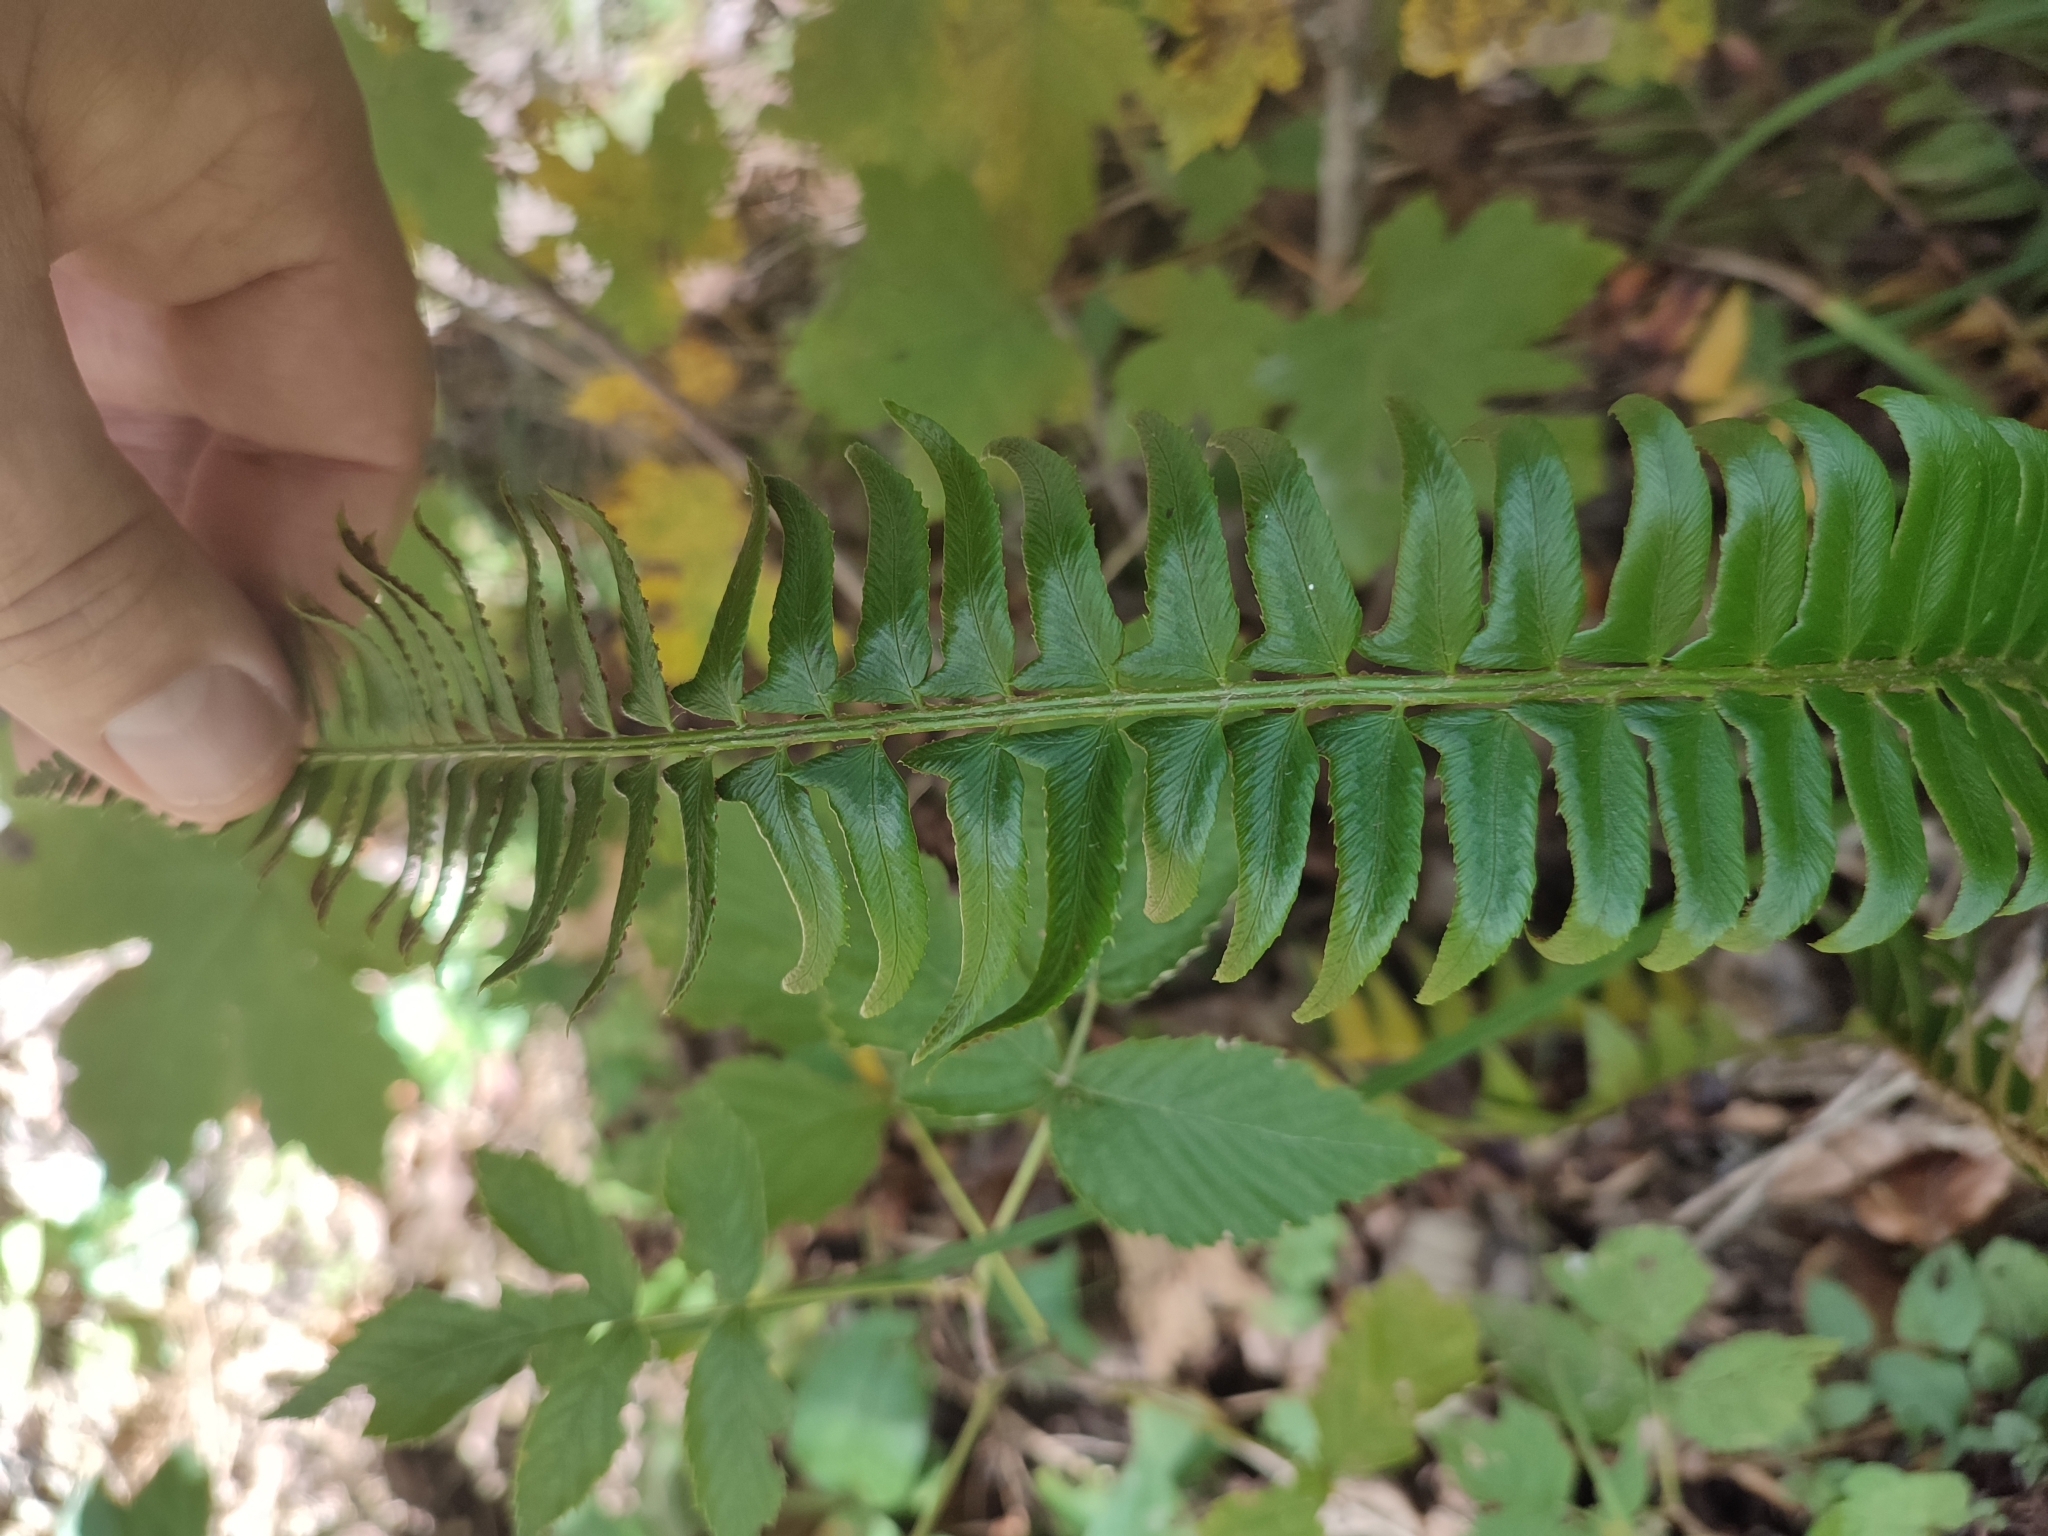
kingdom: Plantae
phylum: Tracheophyta
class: Polypodiopsida
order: Polypodiales
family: Dryopteridaceae
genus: Polystichum
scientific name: Polystichum lonchitis
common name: Holly fern
